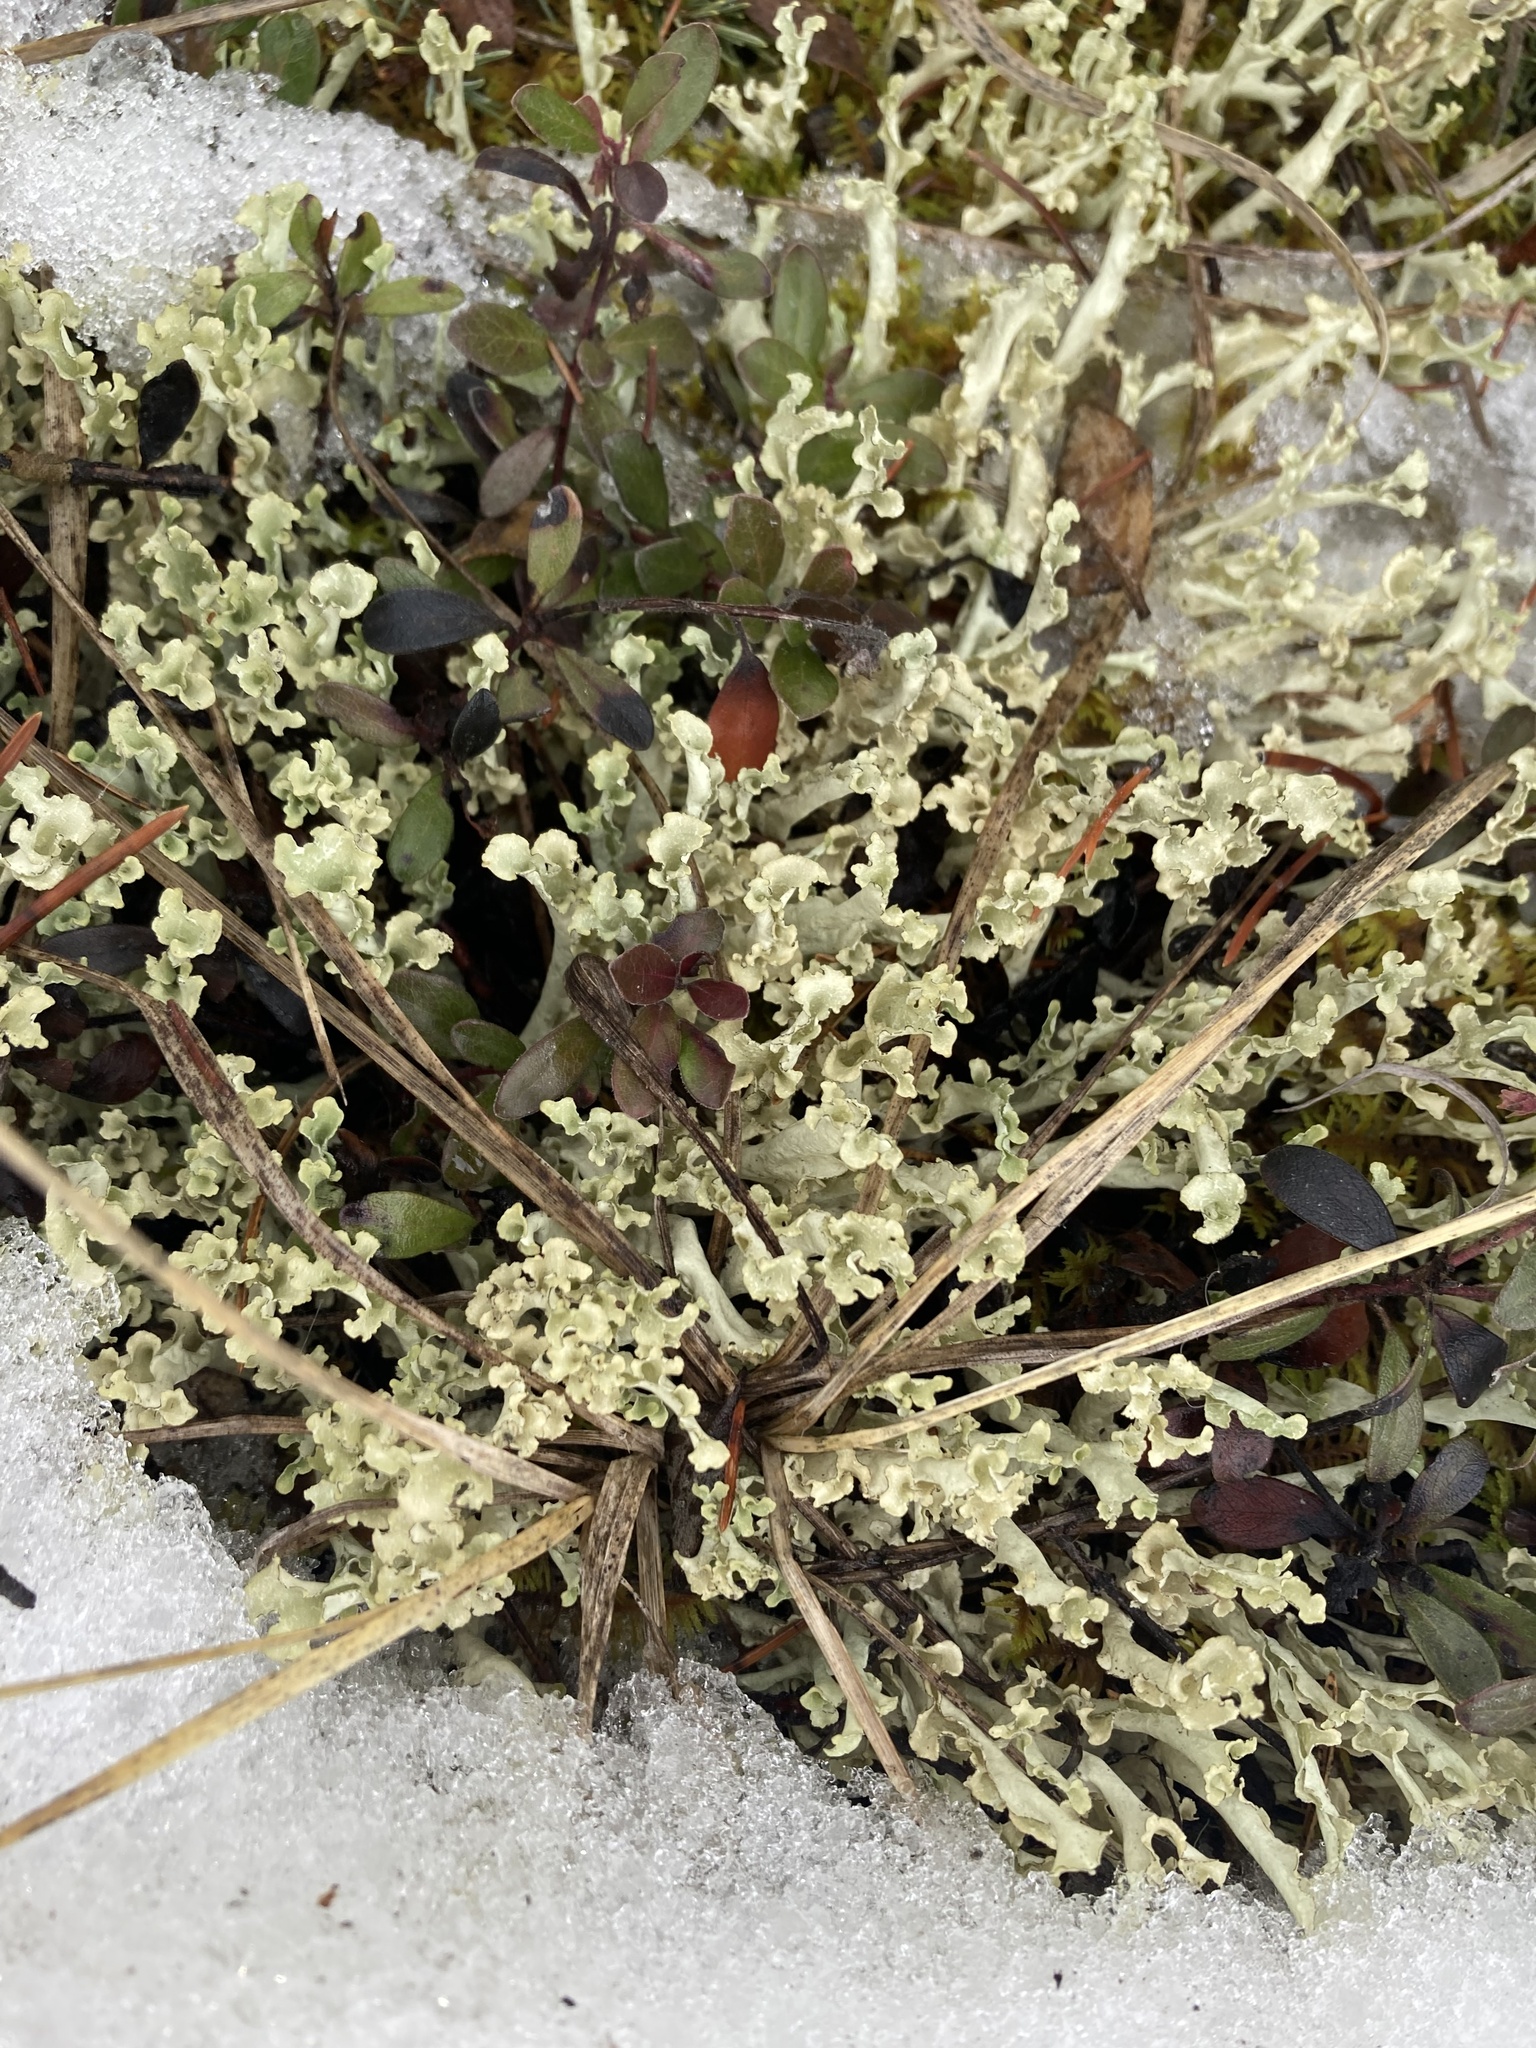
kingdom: Fungi
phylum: Ascomycota
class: Lecanoromycetes
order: Lecanorales
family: Parmeliaceae
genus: Nephromopsis
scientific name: Nephromopsis cucullata
